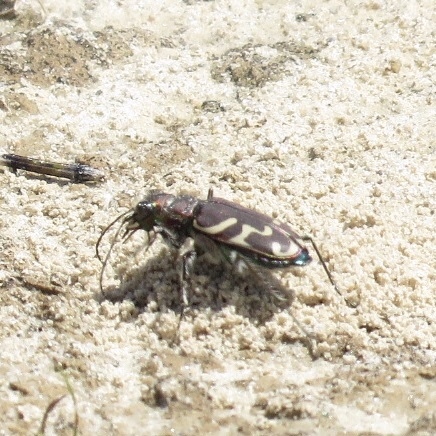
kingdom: Animalia
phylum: Arthropoda
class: Insecta
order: Coleoptera
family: Carabidae
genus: Cicindela
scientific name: Cicindela tranquebarica
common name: Oblique-lined tiger beetle
